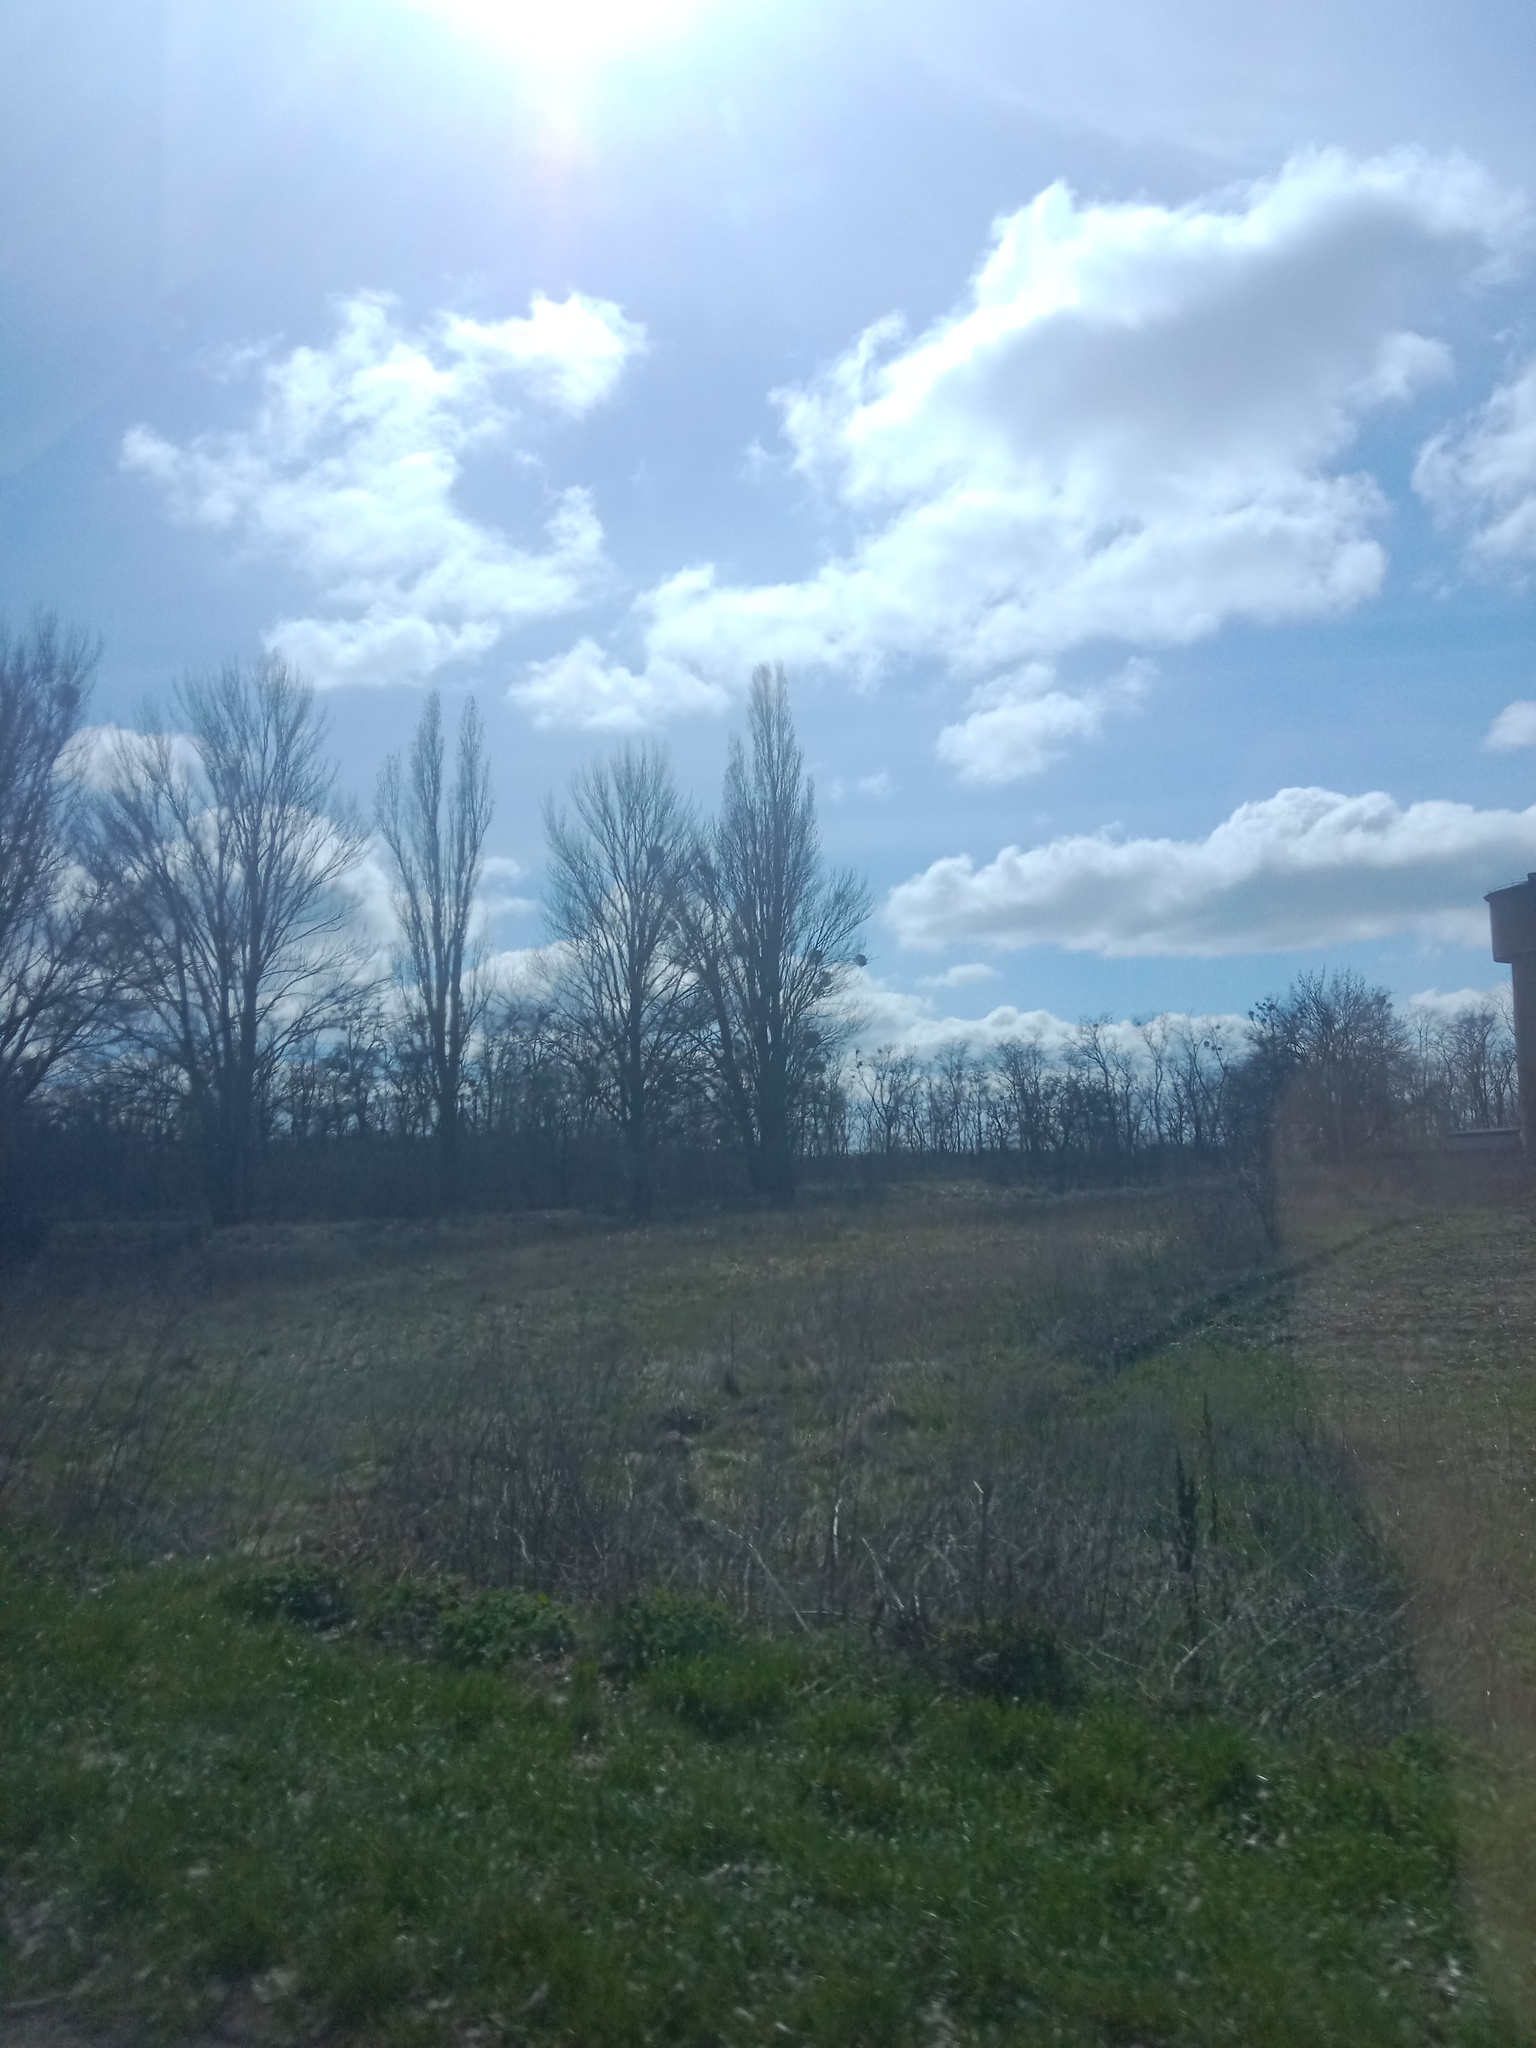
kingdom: Plantae
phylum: Tracheophyta
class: Magnoliopsida
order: Santalales
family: Viscaceae
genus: Viscum
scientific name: Viscum album
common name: Mistletoe
